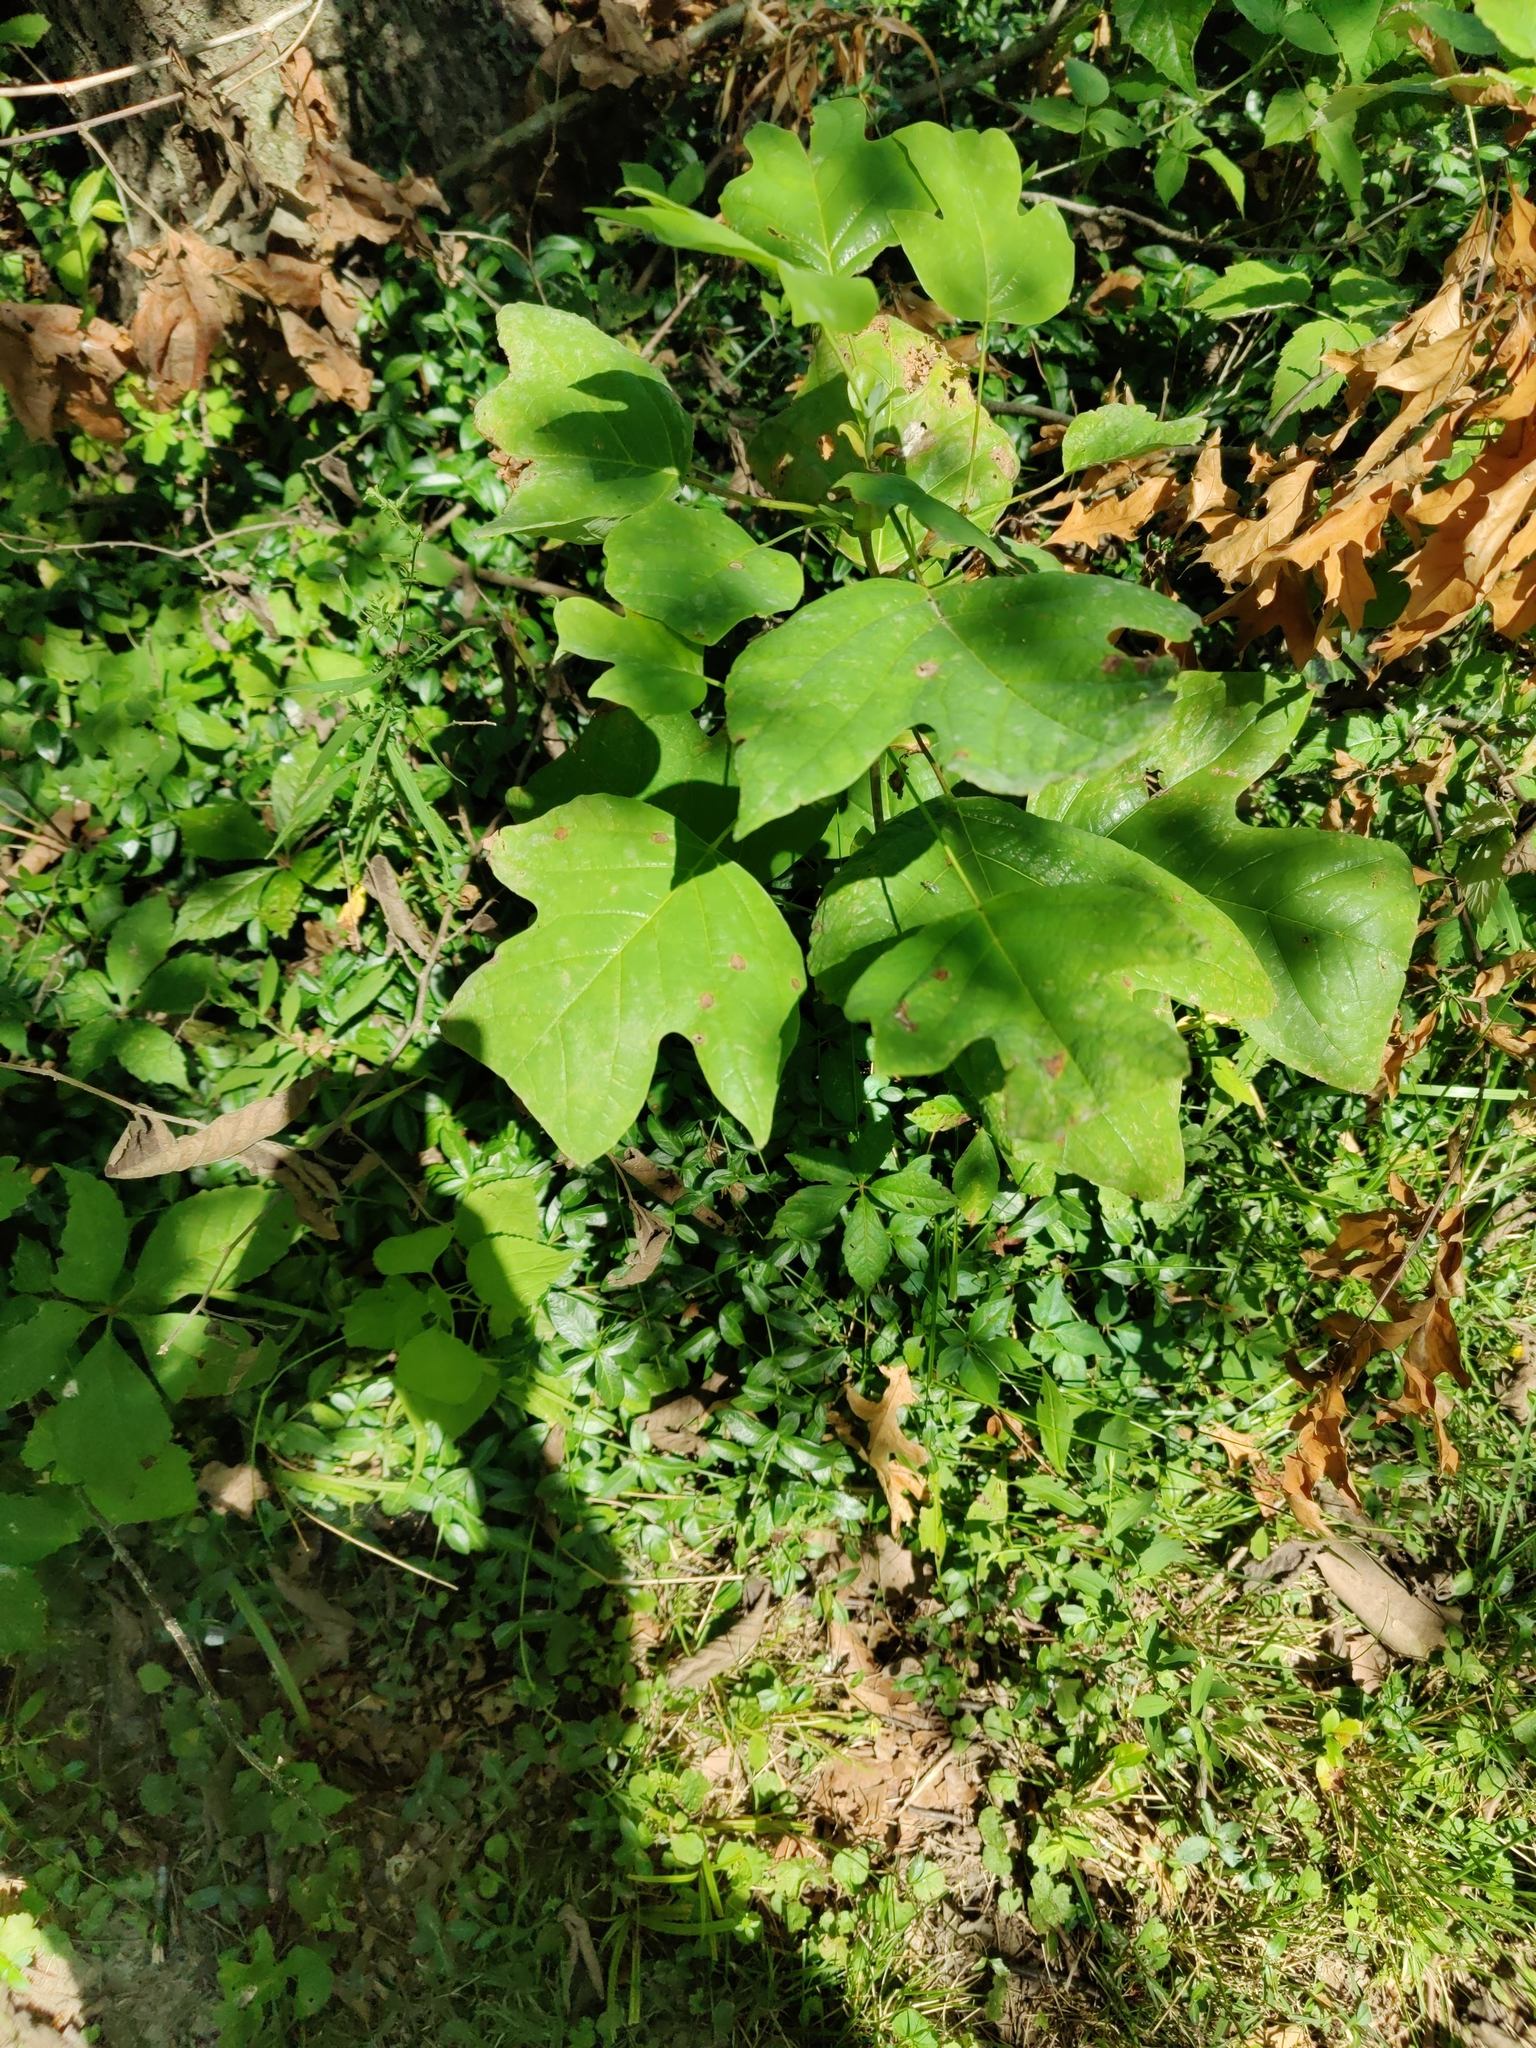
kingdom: Plantae
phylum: Tracheophyta
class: Magnoliopsida
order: Magnoliales
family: Magnoliaceae
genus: Liriodendron
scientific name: Liriodendron tulipifera
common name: Tulip tree
